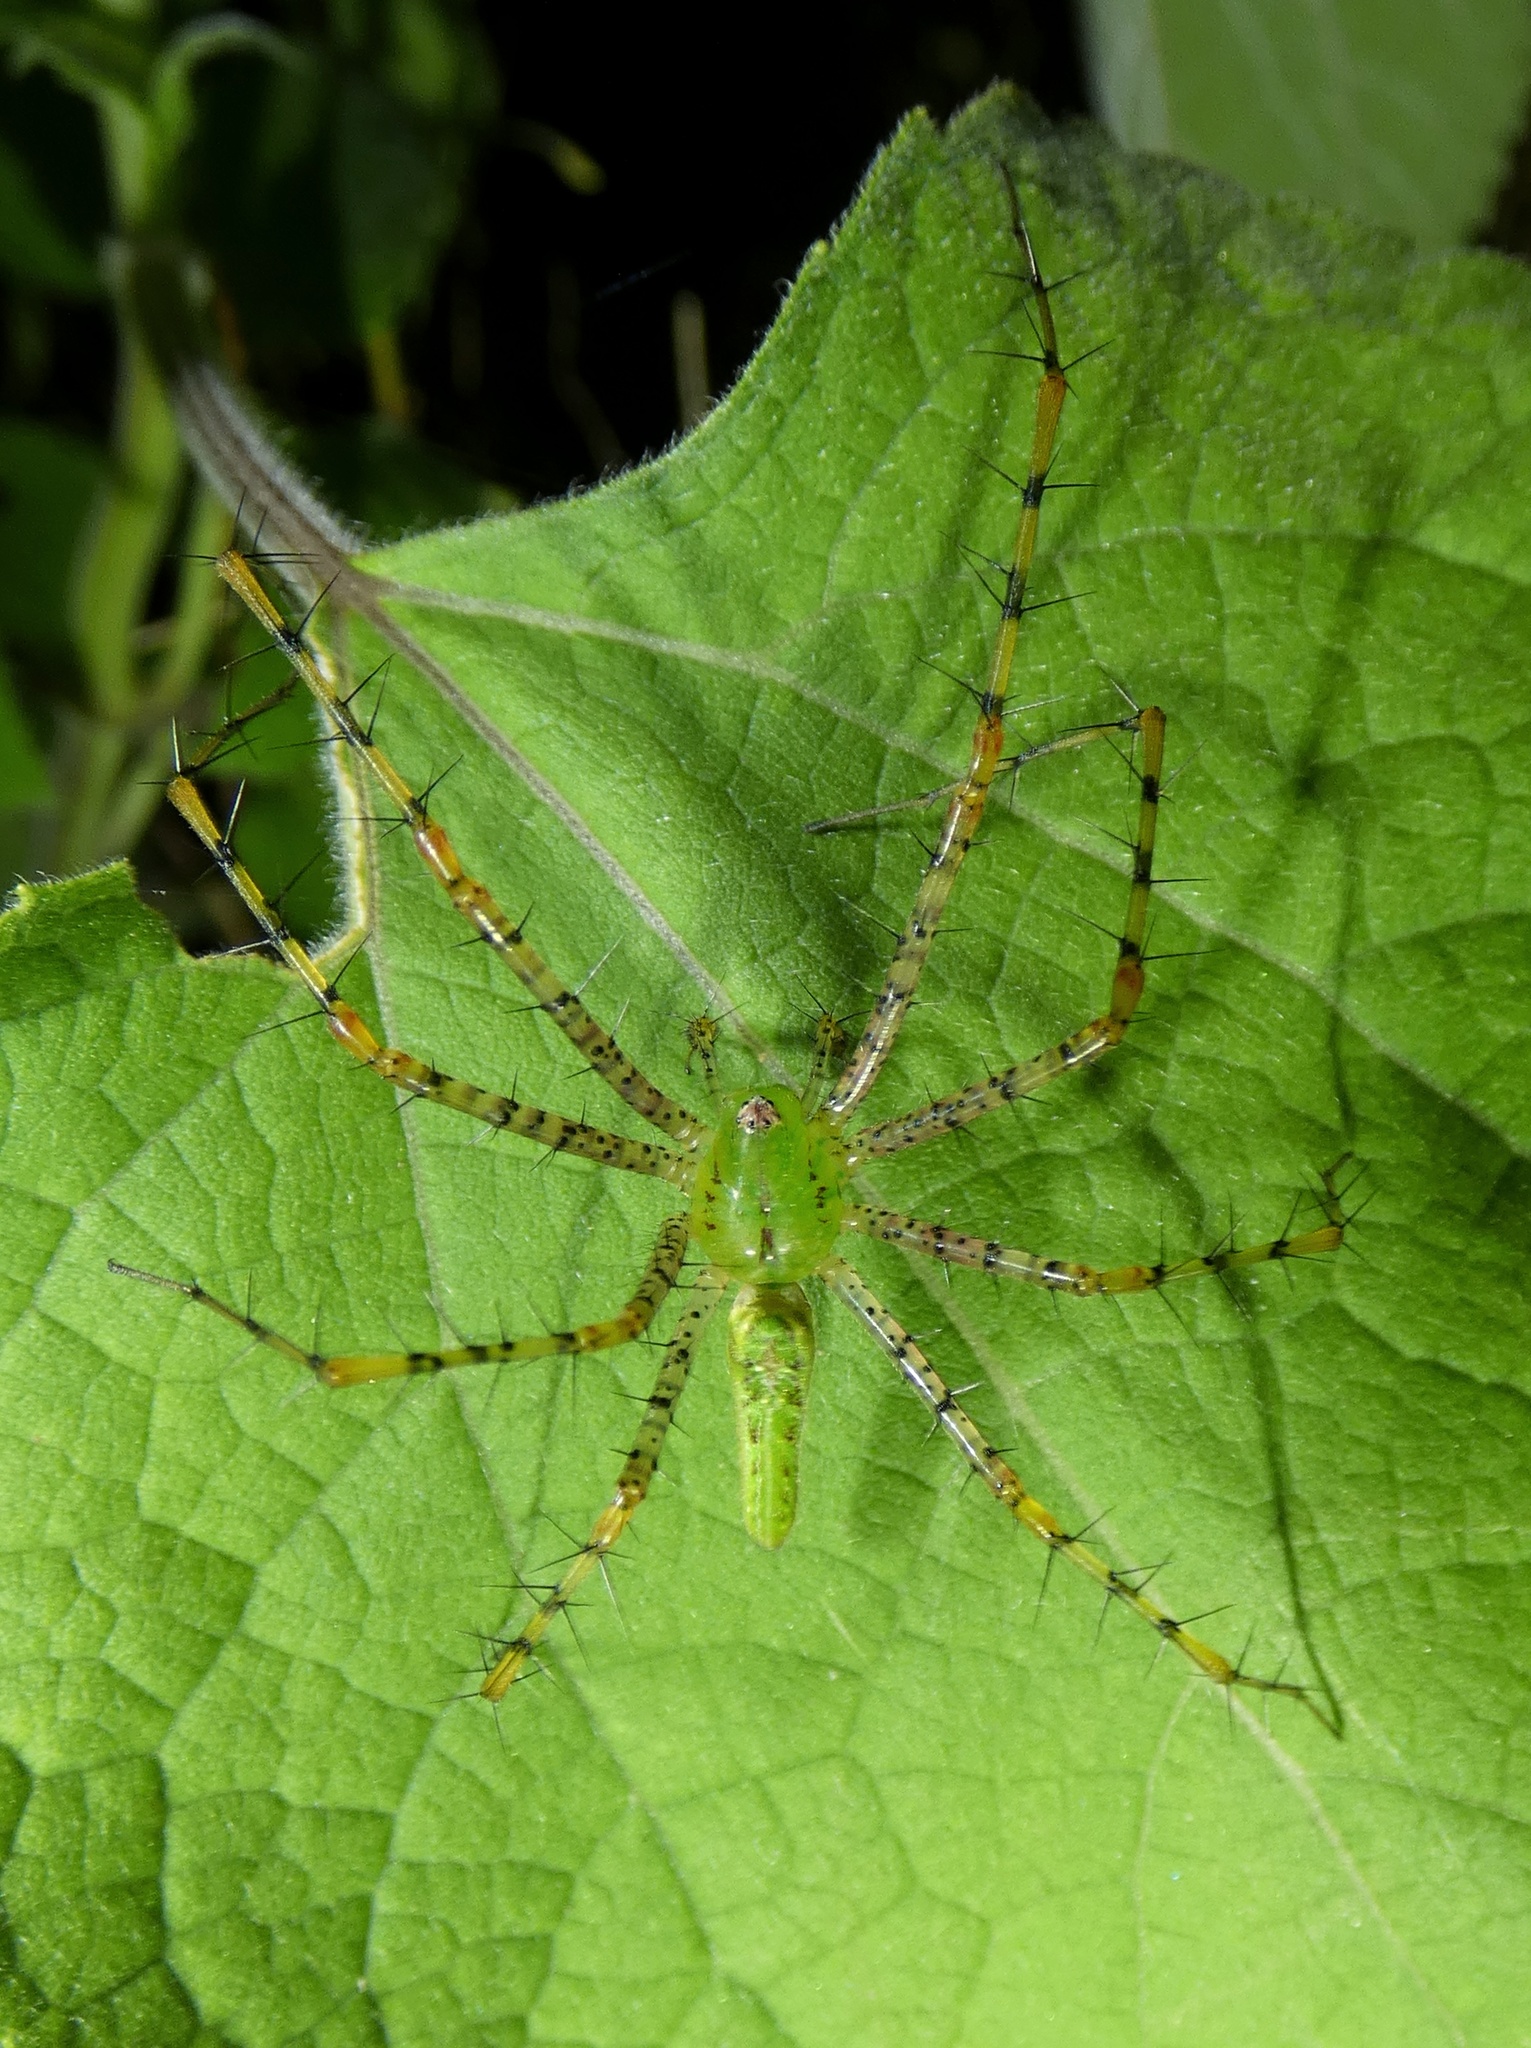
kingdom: Animalia
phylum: Arthropoda
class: Arachnida
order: Araneae
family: Oxyopidae
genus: Peucetia
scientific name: Peucetia viridans
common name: Lynx spiders
